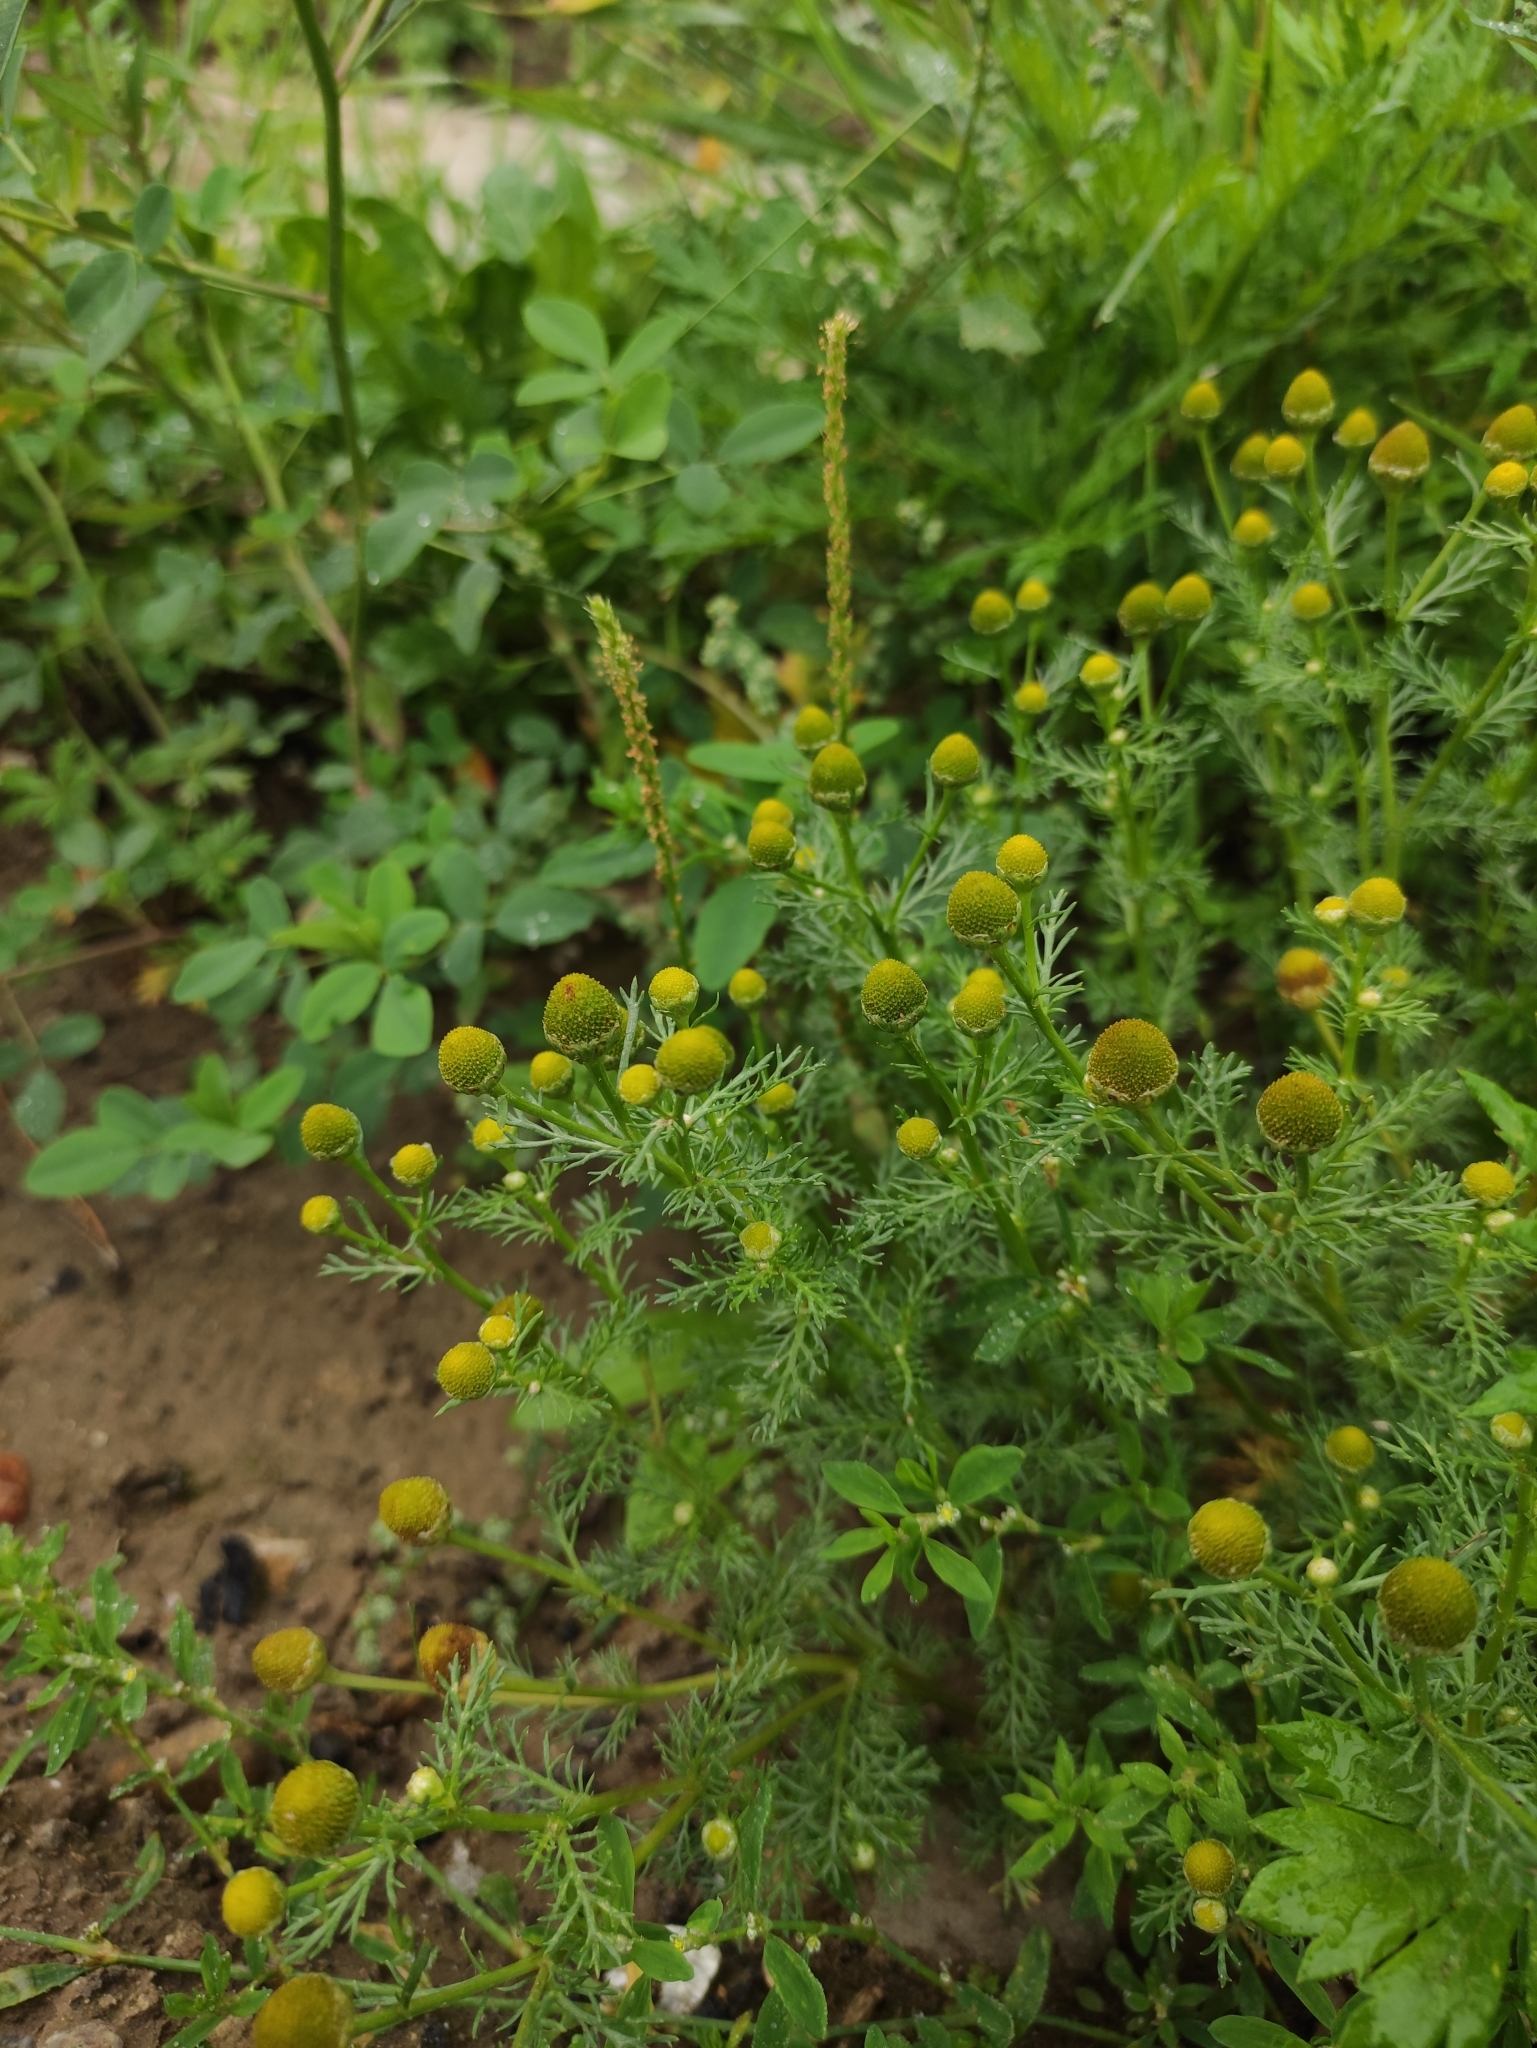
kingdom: Plantae
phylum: Tracheophyta
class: Magnoliopsida
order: Asterales
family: Asteraceae
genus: Matricaria
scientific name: Matricaria discoidea
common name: Disc mayweed
